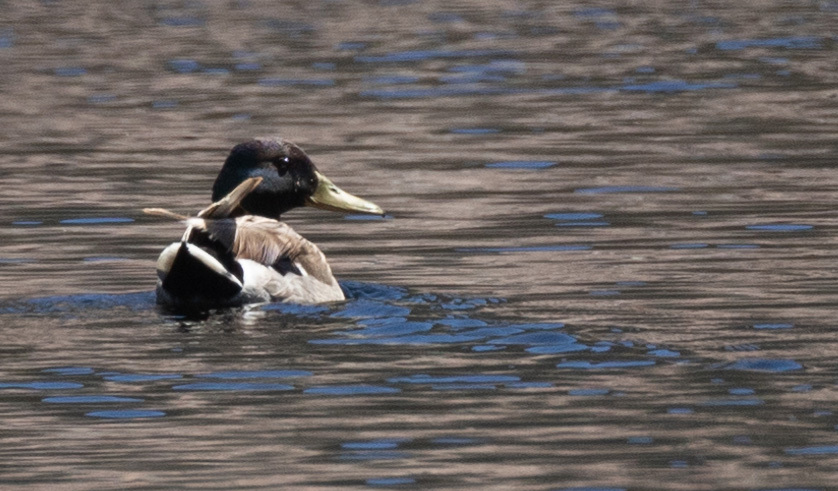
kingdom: Animalia
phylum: Chordata
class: Aves
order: Anseriformes
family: Anatidae
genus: Anas
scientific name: Anas platyrhynchos
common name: Mallard
